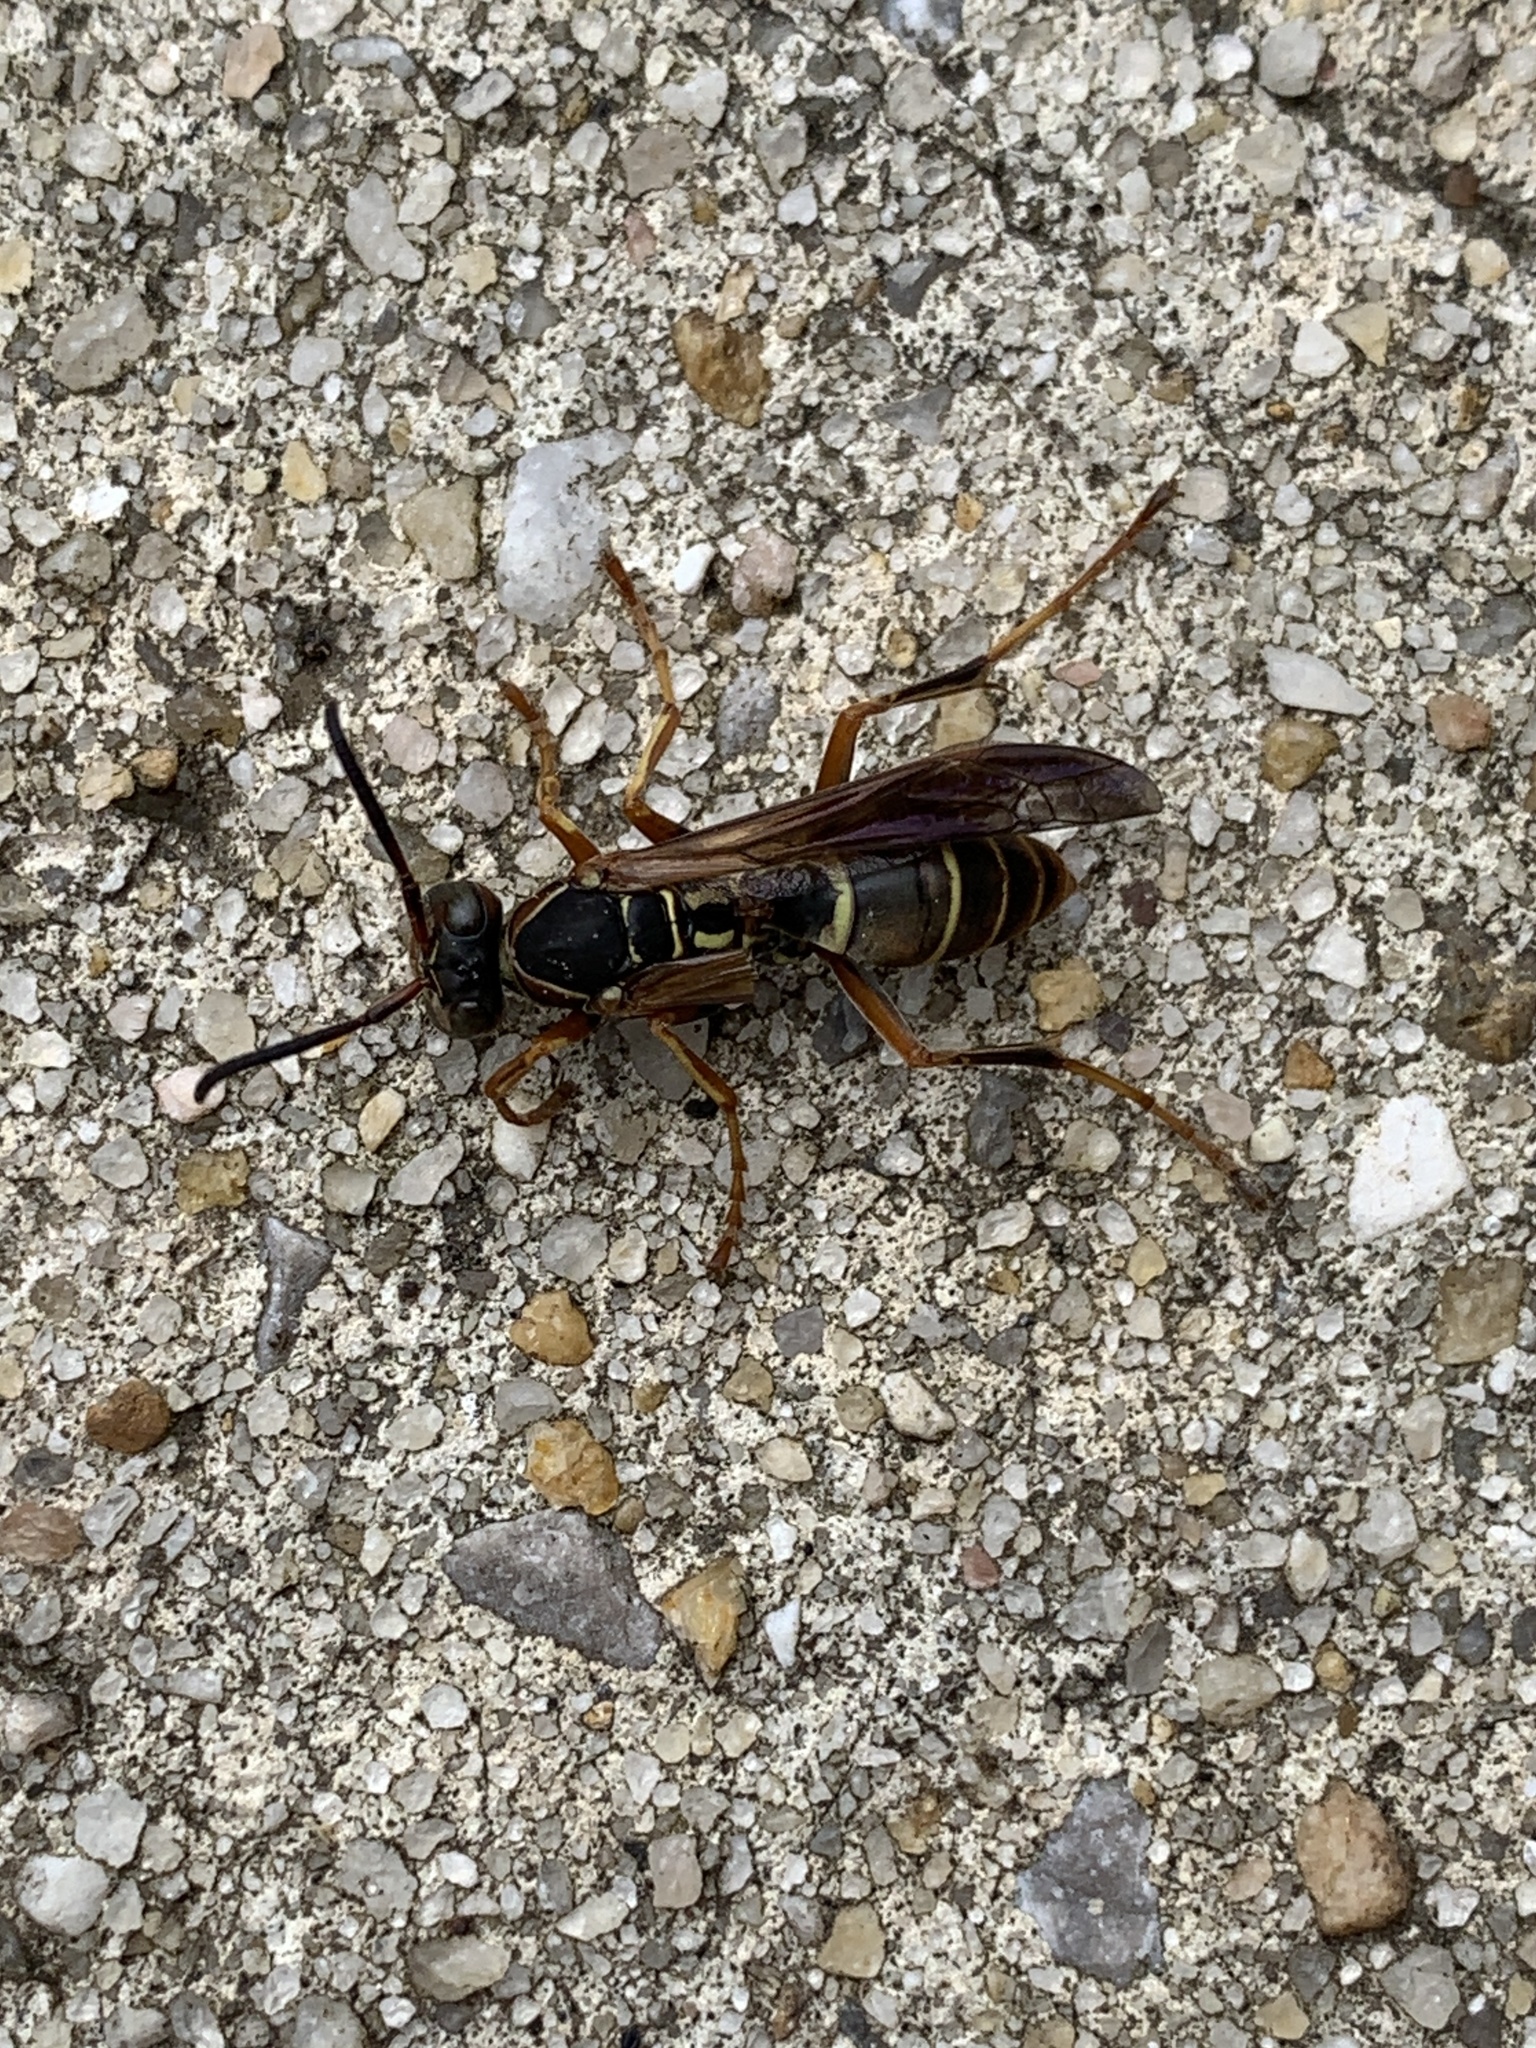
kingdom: Animalia
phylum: Arthropoda
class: Insecta
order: Hymenoptera
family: Eumenidae
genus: Polistes
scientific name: Polistes fuscatus
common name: Dark paper wasp
